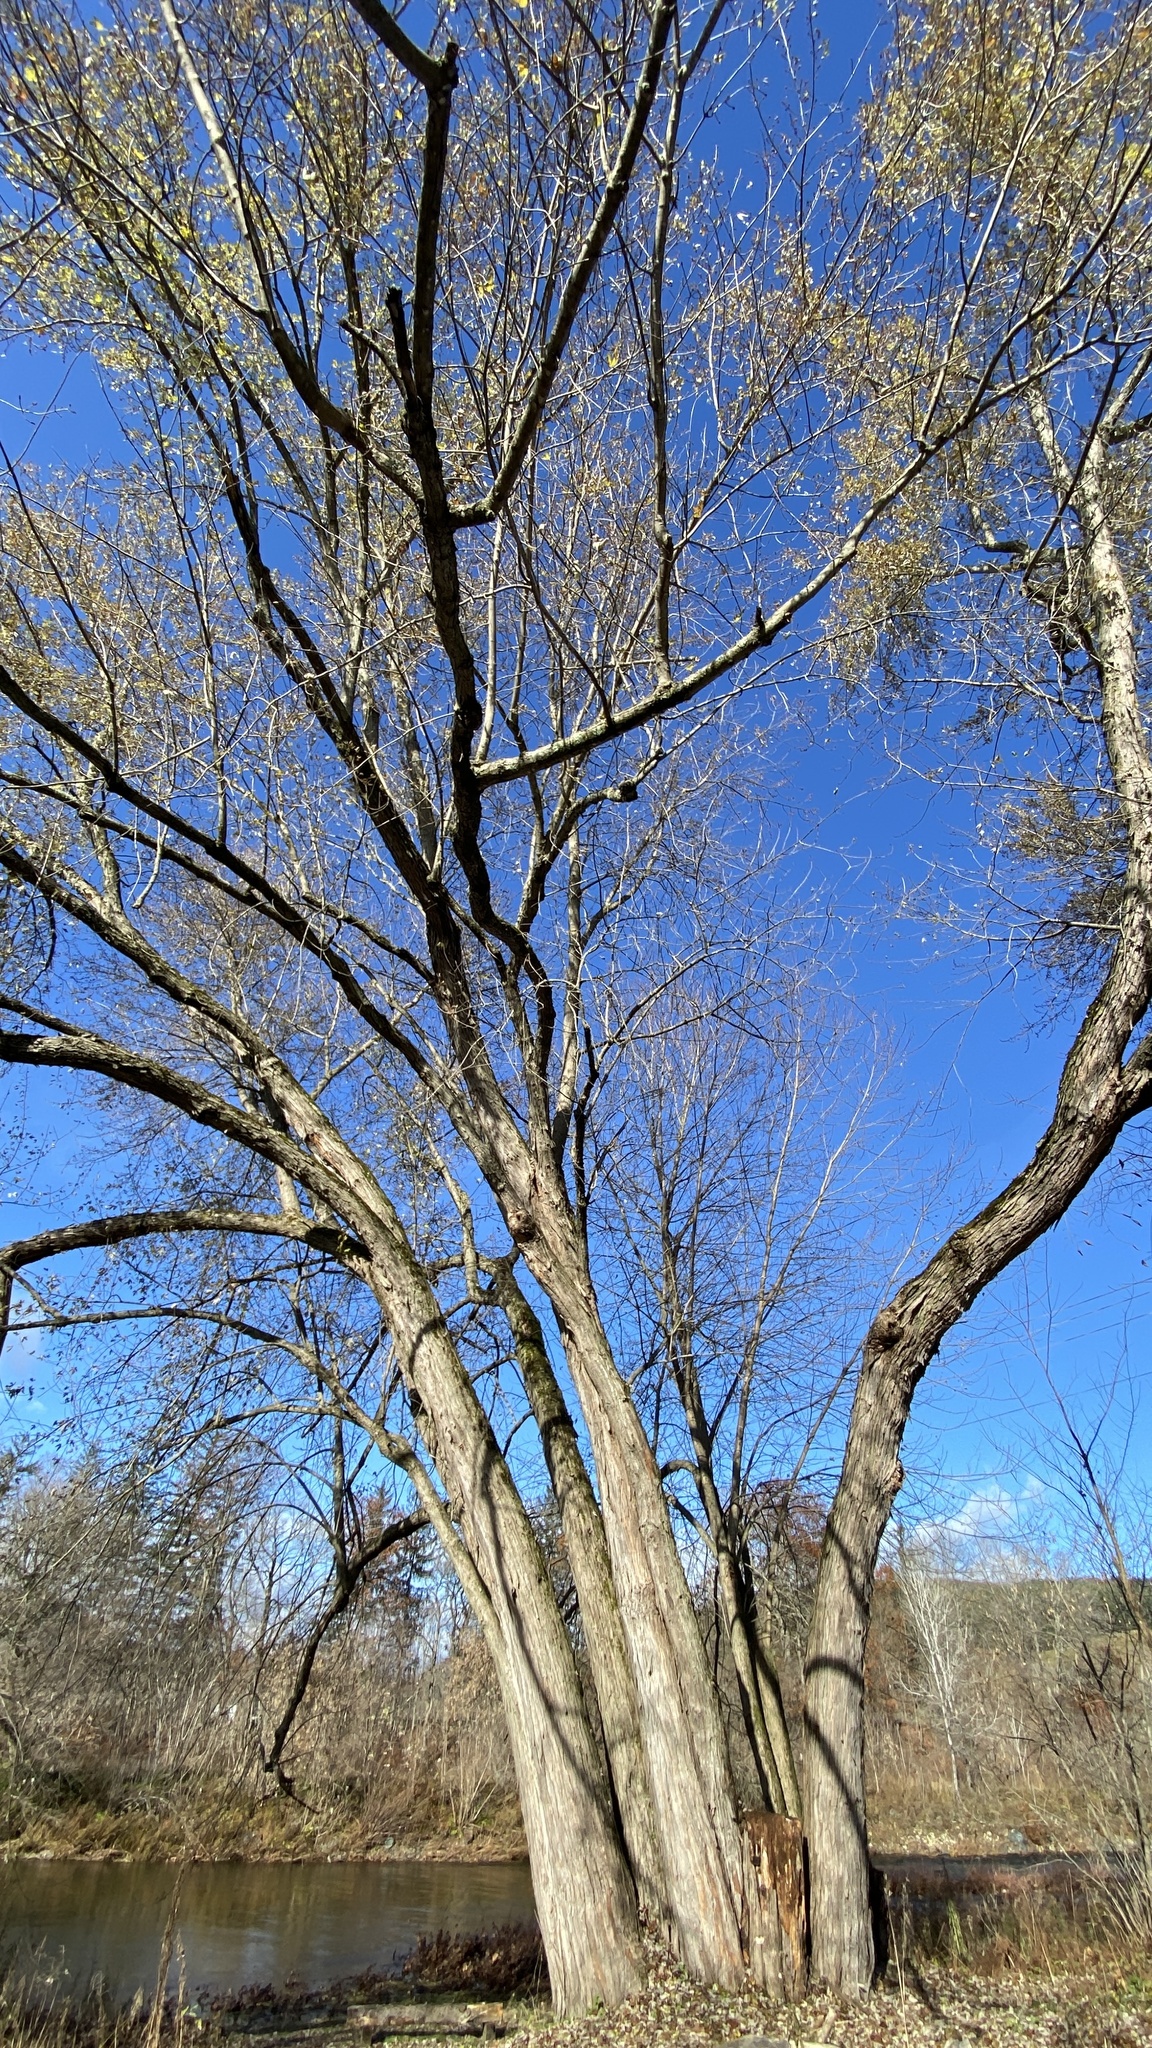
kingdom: Plantae
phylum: Tracheophyta
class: Magnoliopsida
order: Sapindales
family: Sapindaceae
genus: Acer
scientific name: Acer saccharinum
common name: Silver maple
